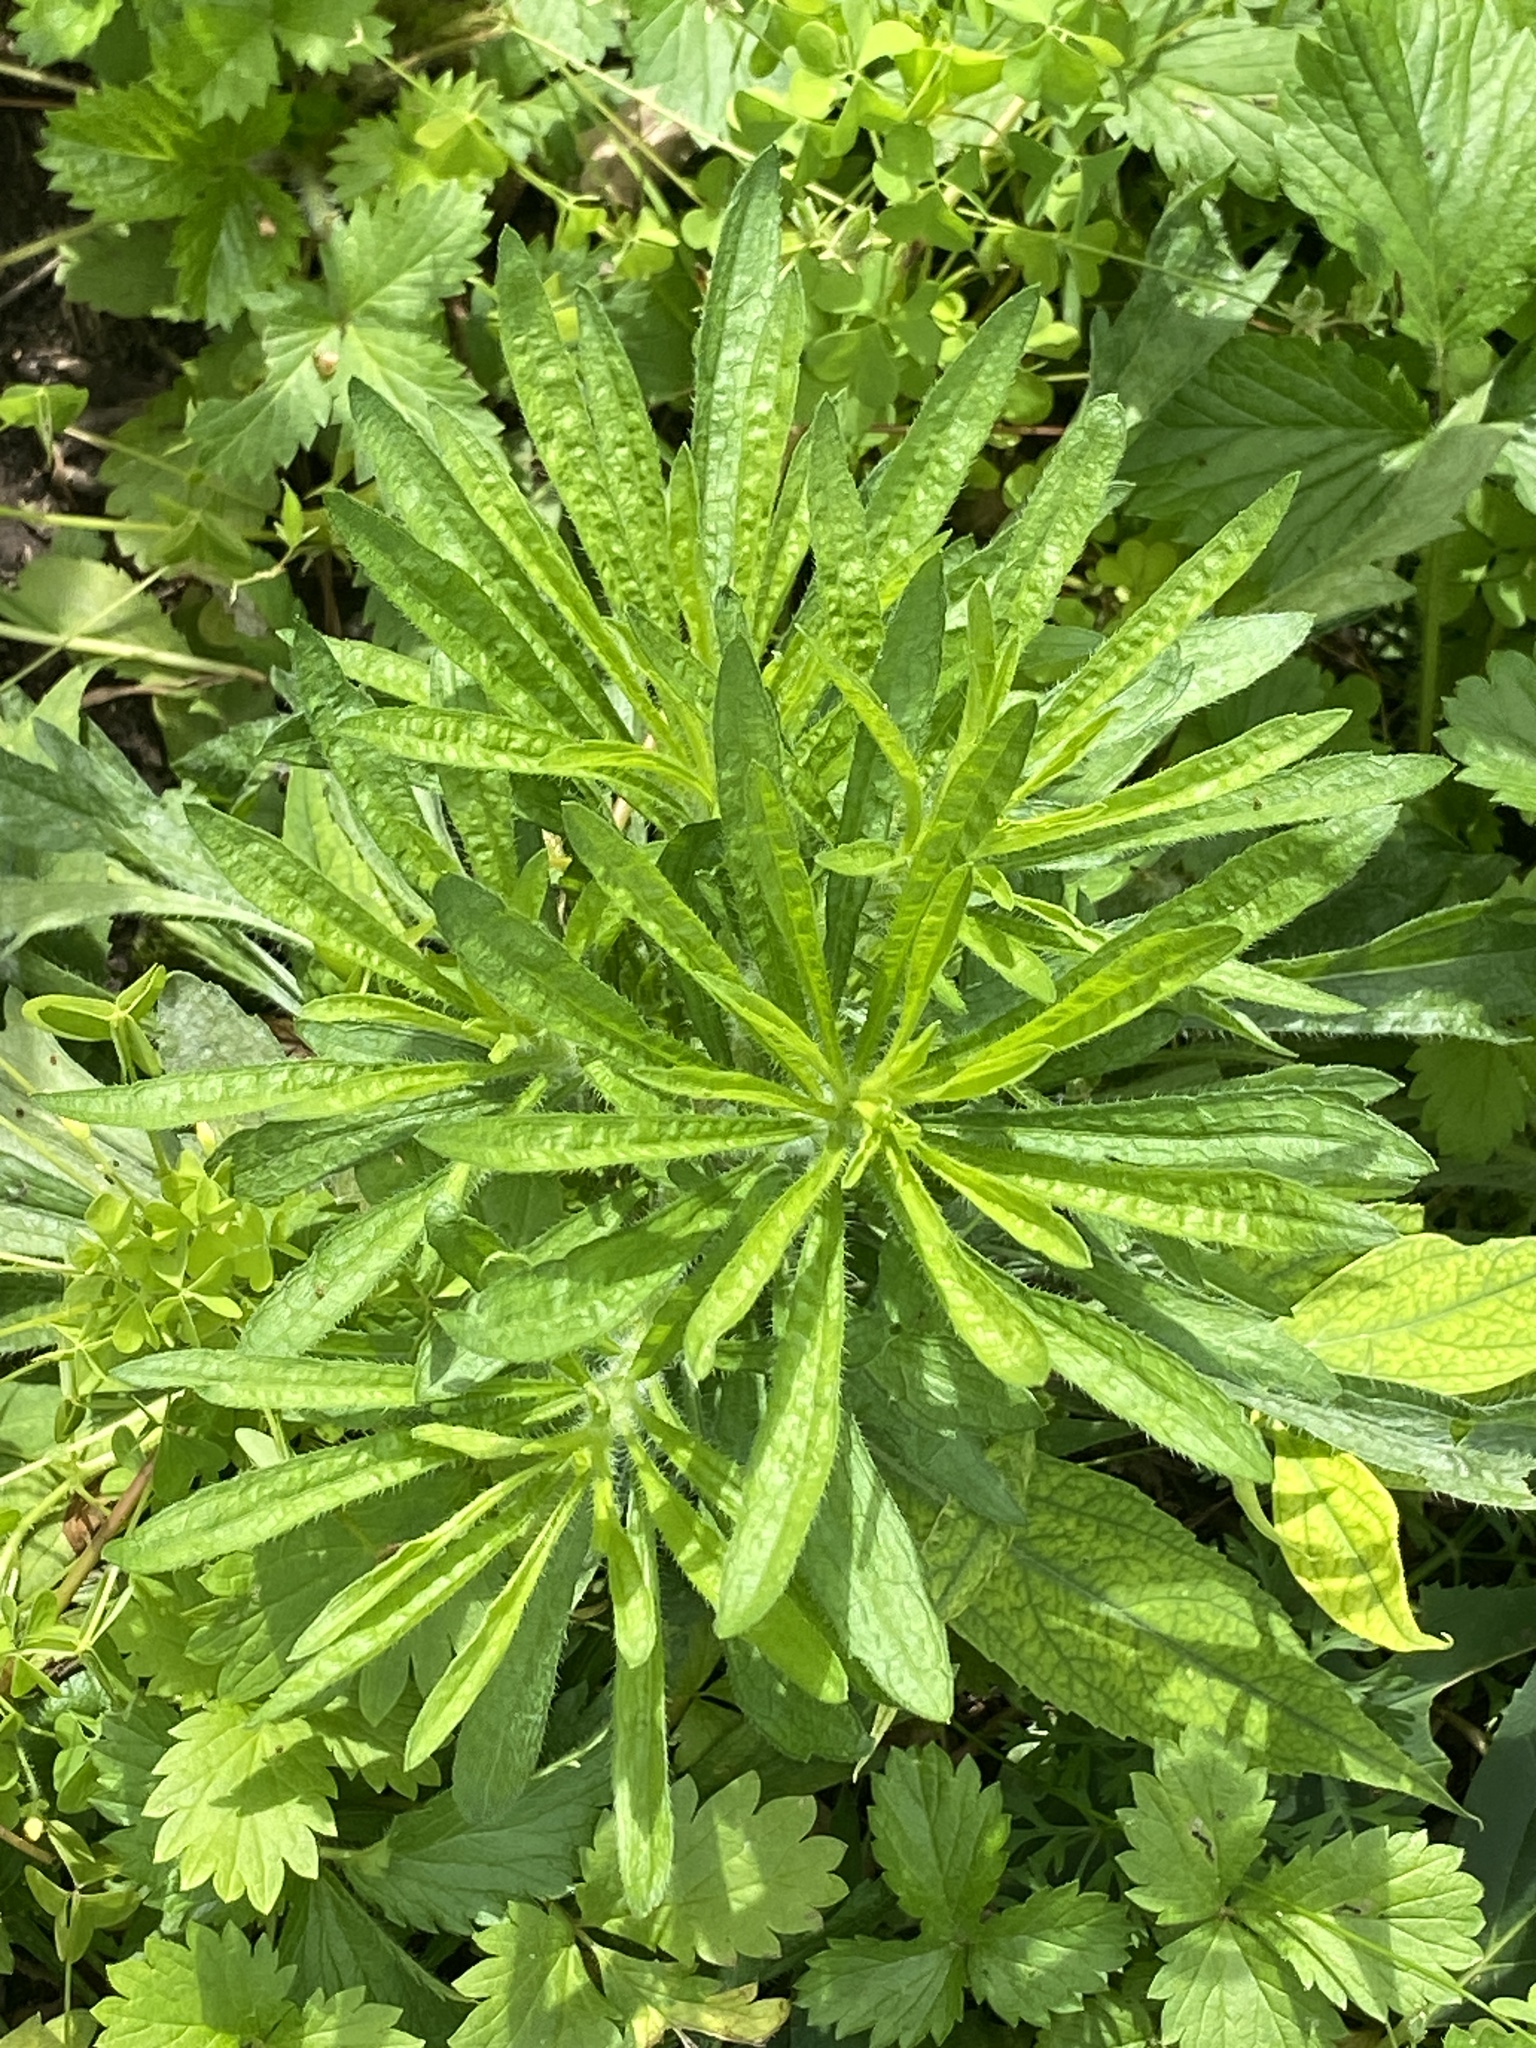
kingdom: Plantae
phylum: Tracheophyta
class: Magnoliopsida
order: Asterales
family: Asteraceae
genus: Erigeron
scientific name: Erigeron canadensis
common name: Canadian fleabane
